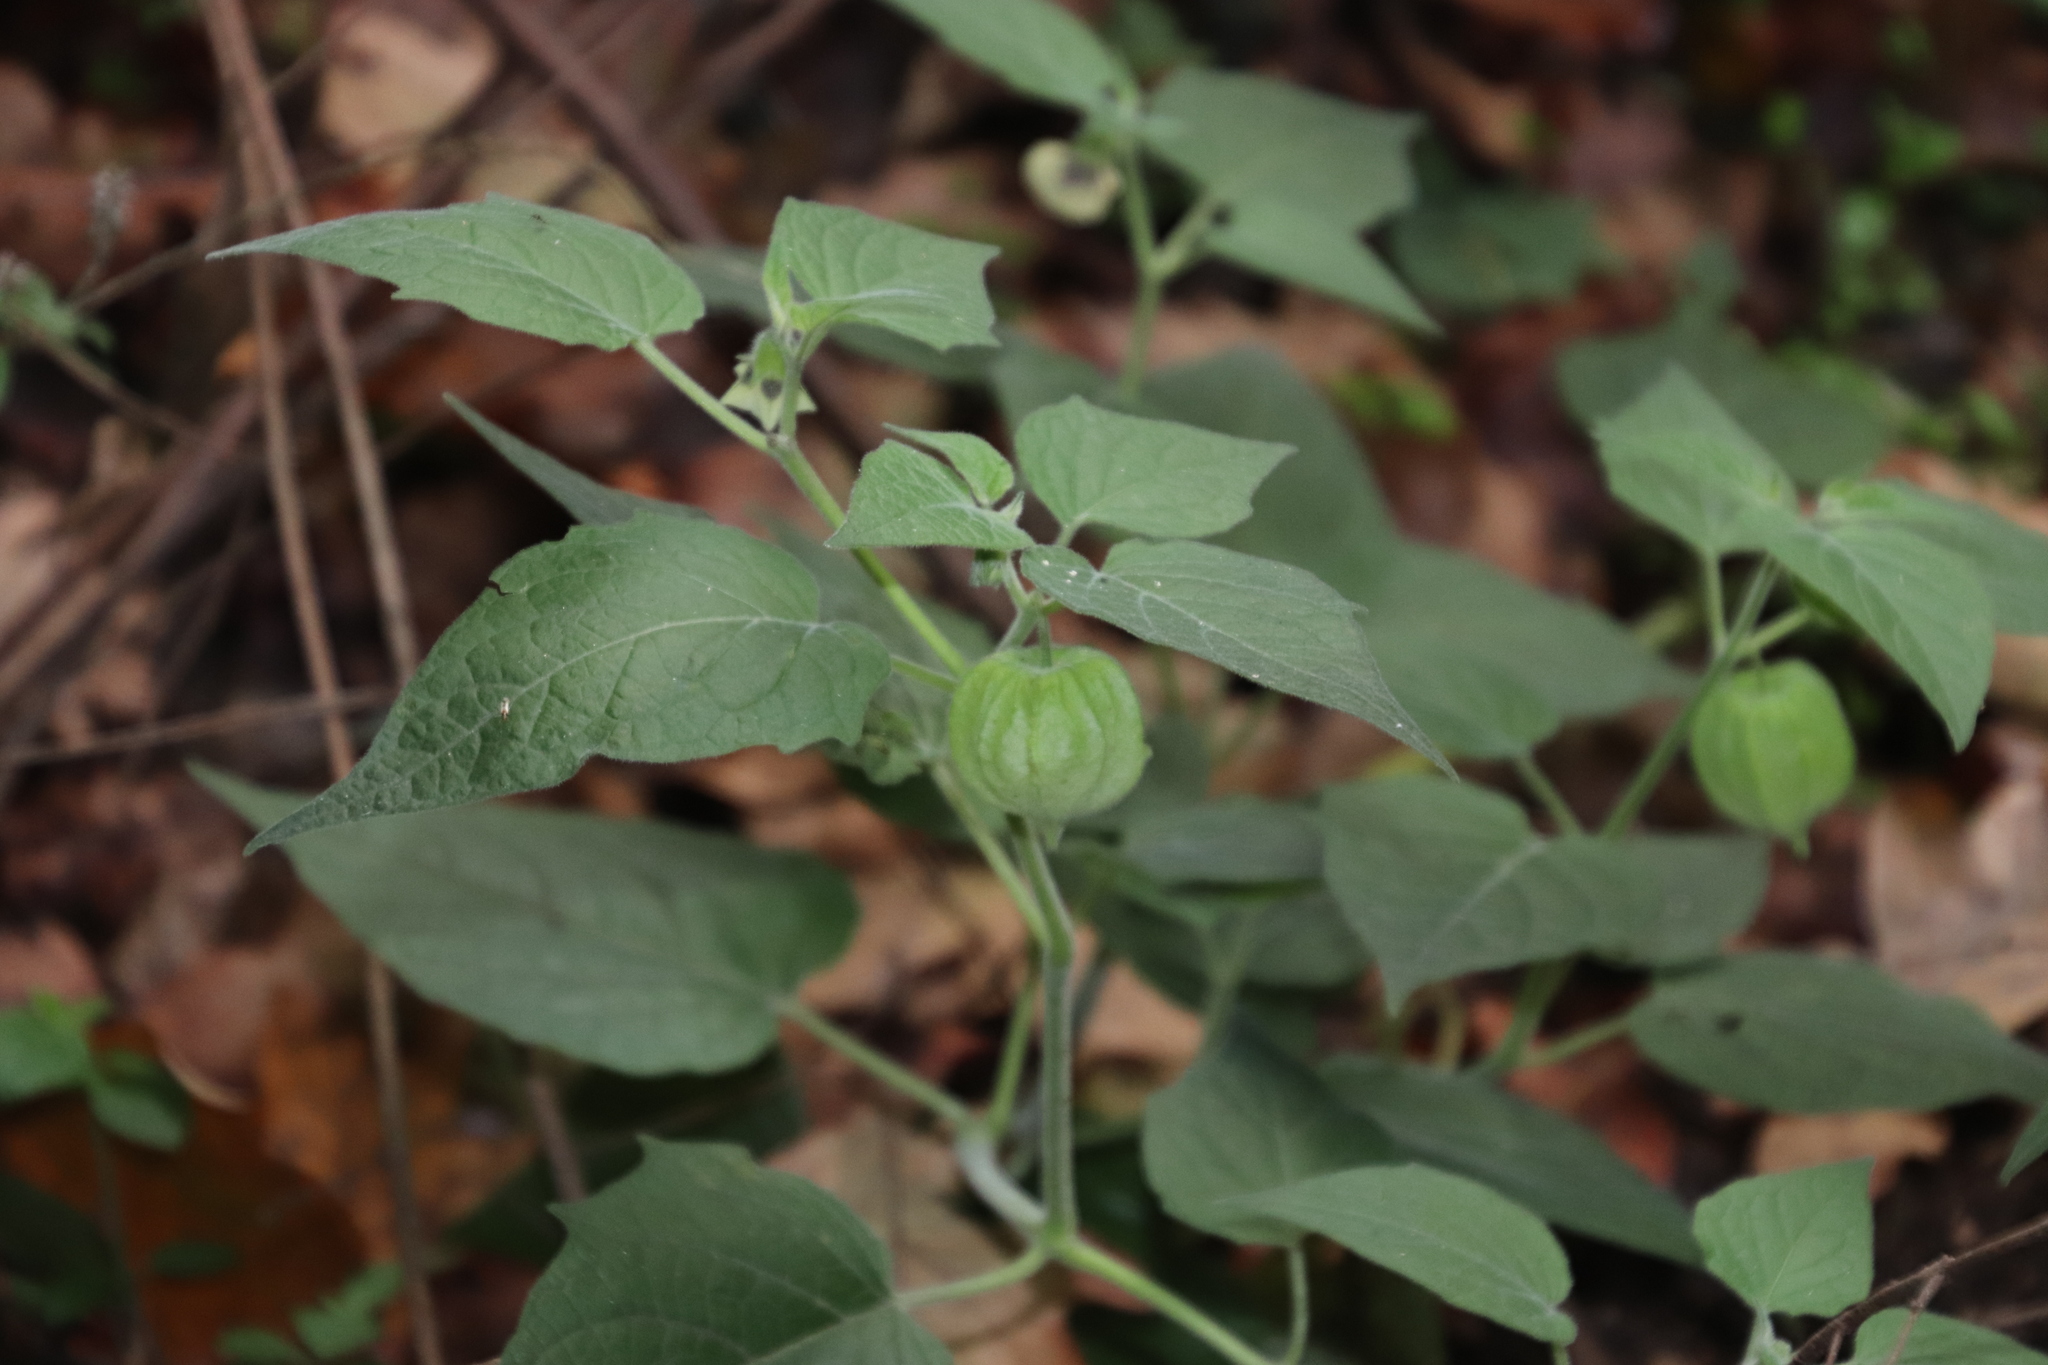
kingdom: Plantae
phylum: Tracheophyta
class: Magnoliopsida
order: Solanales
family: Solanaceae
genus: Physalis
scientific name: Physalis peruviana
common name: Cape-gooseberry
